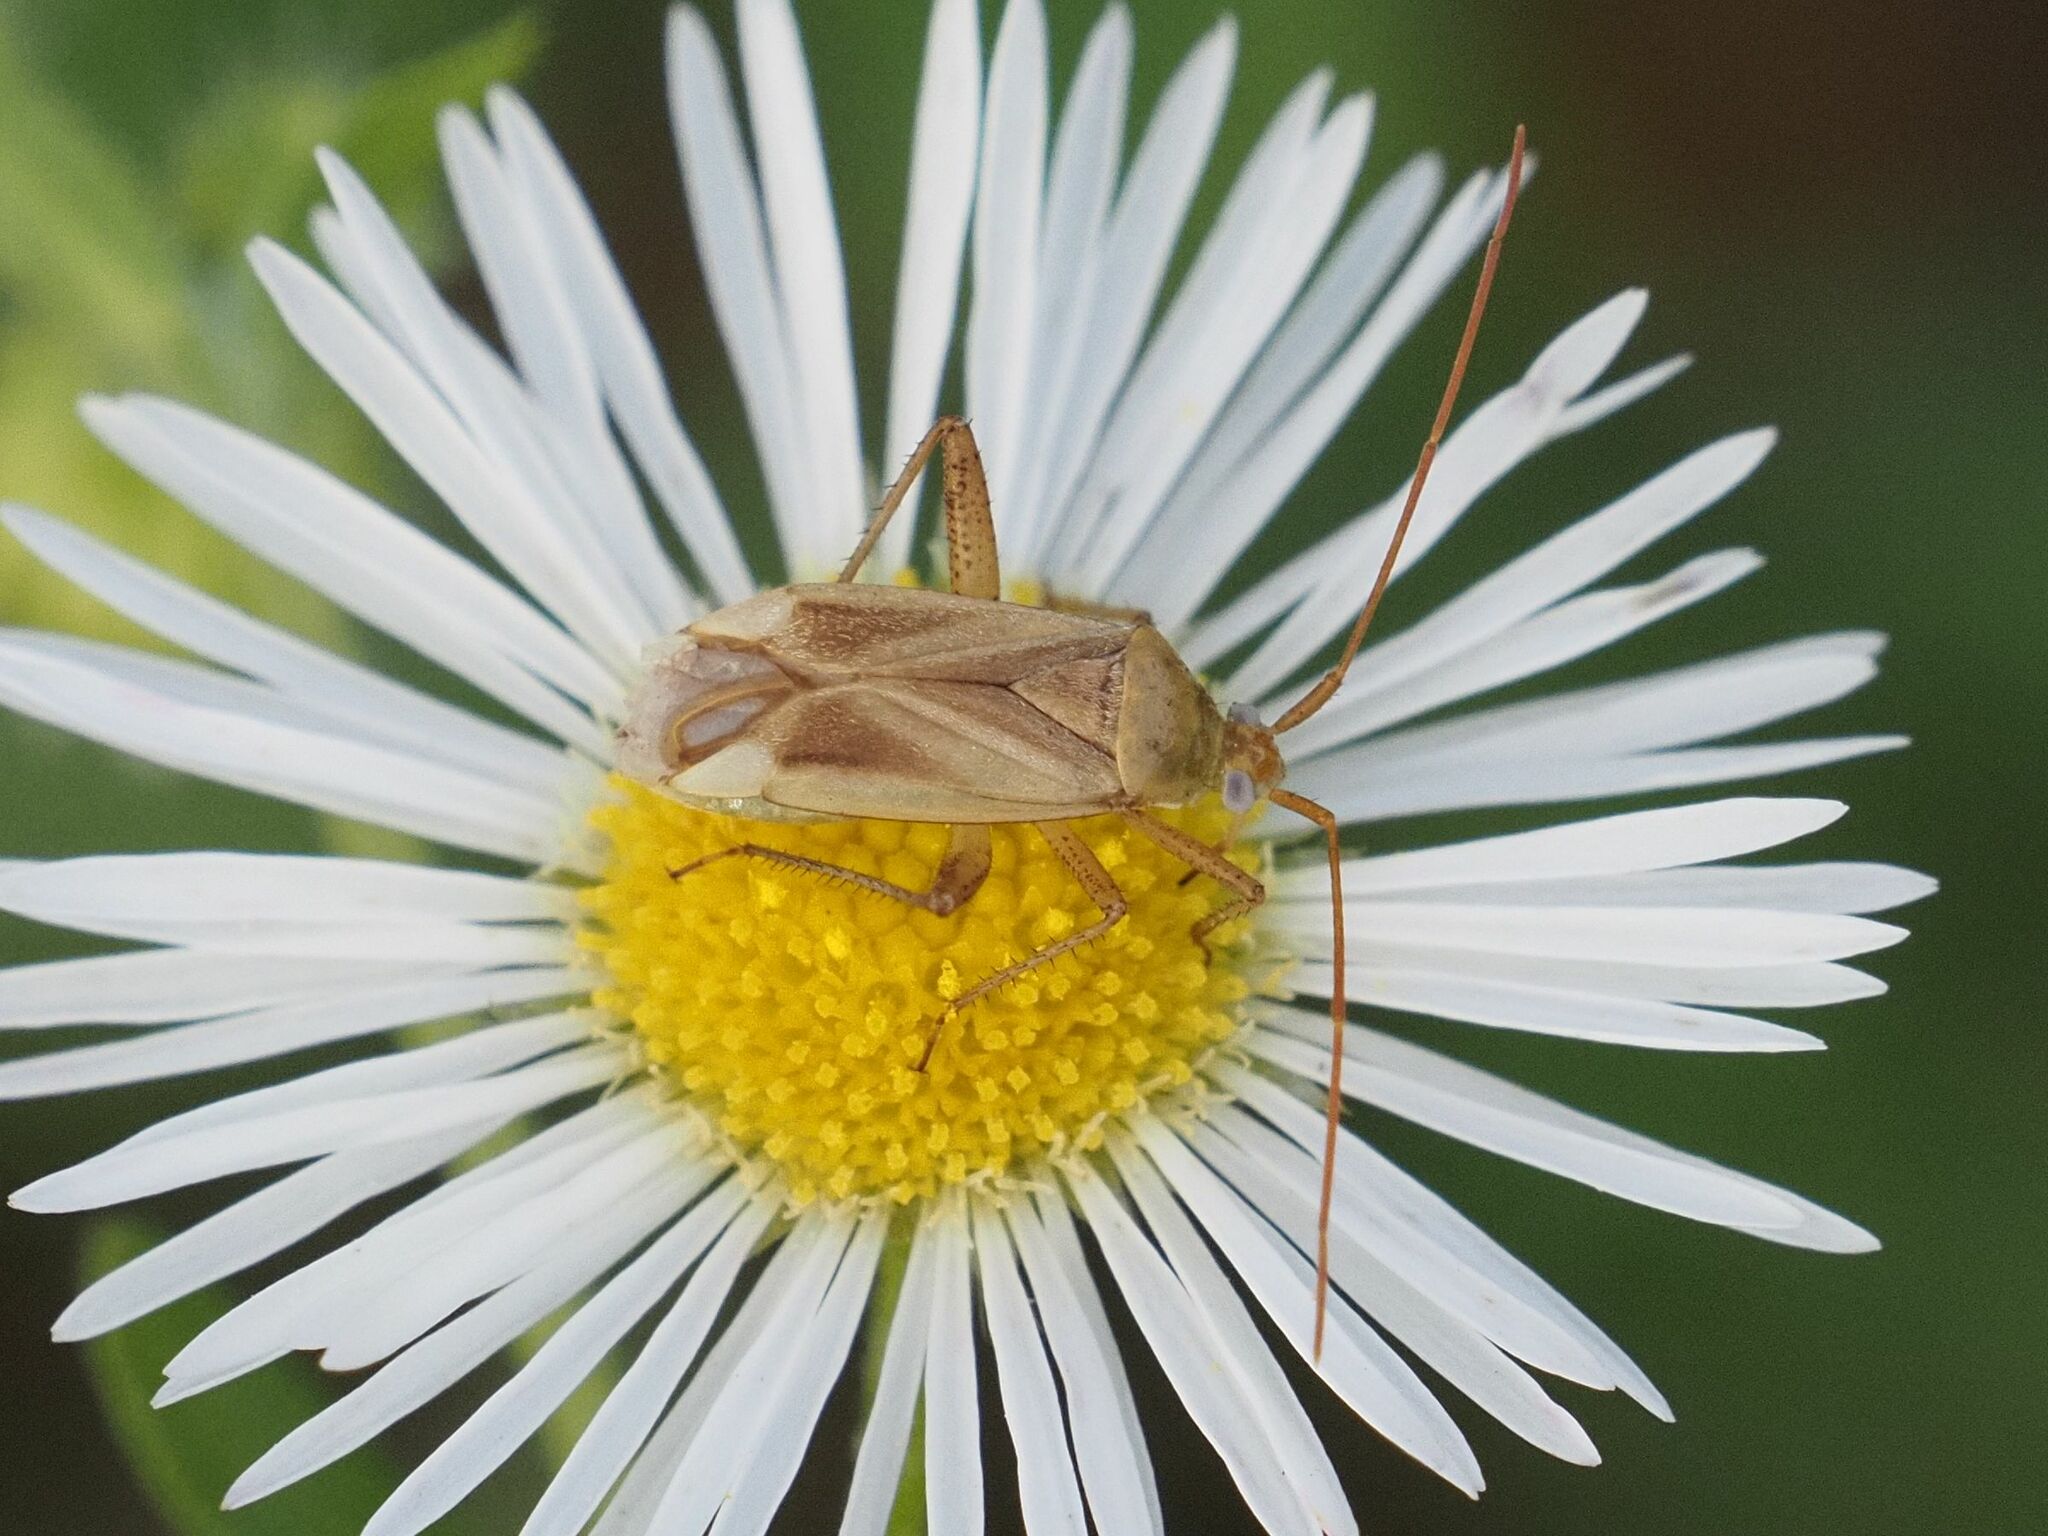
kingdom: Animalia
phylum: Arthropoda
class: Insecta
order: Hemiptera
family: Miridae
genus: Adelphocoris
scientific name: Adelphocoris lineolatus
